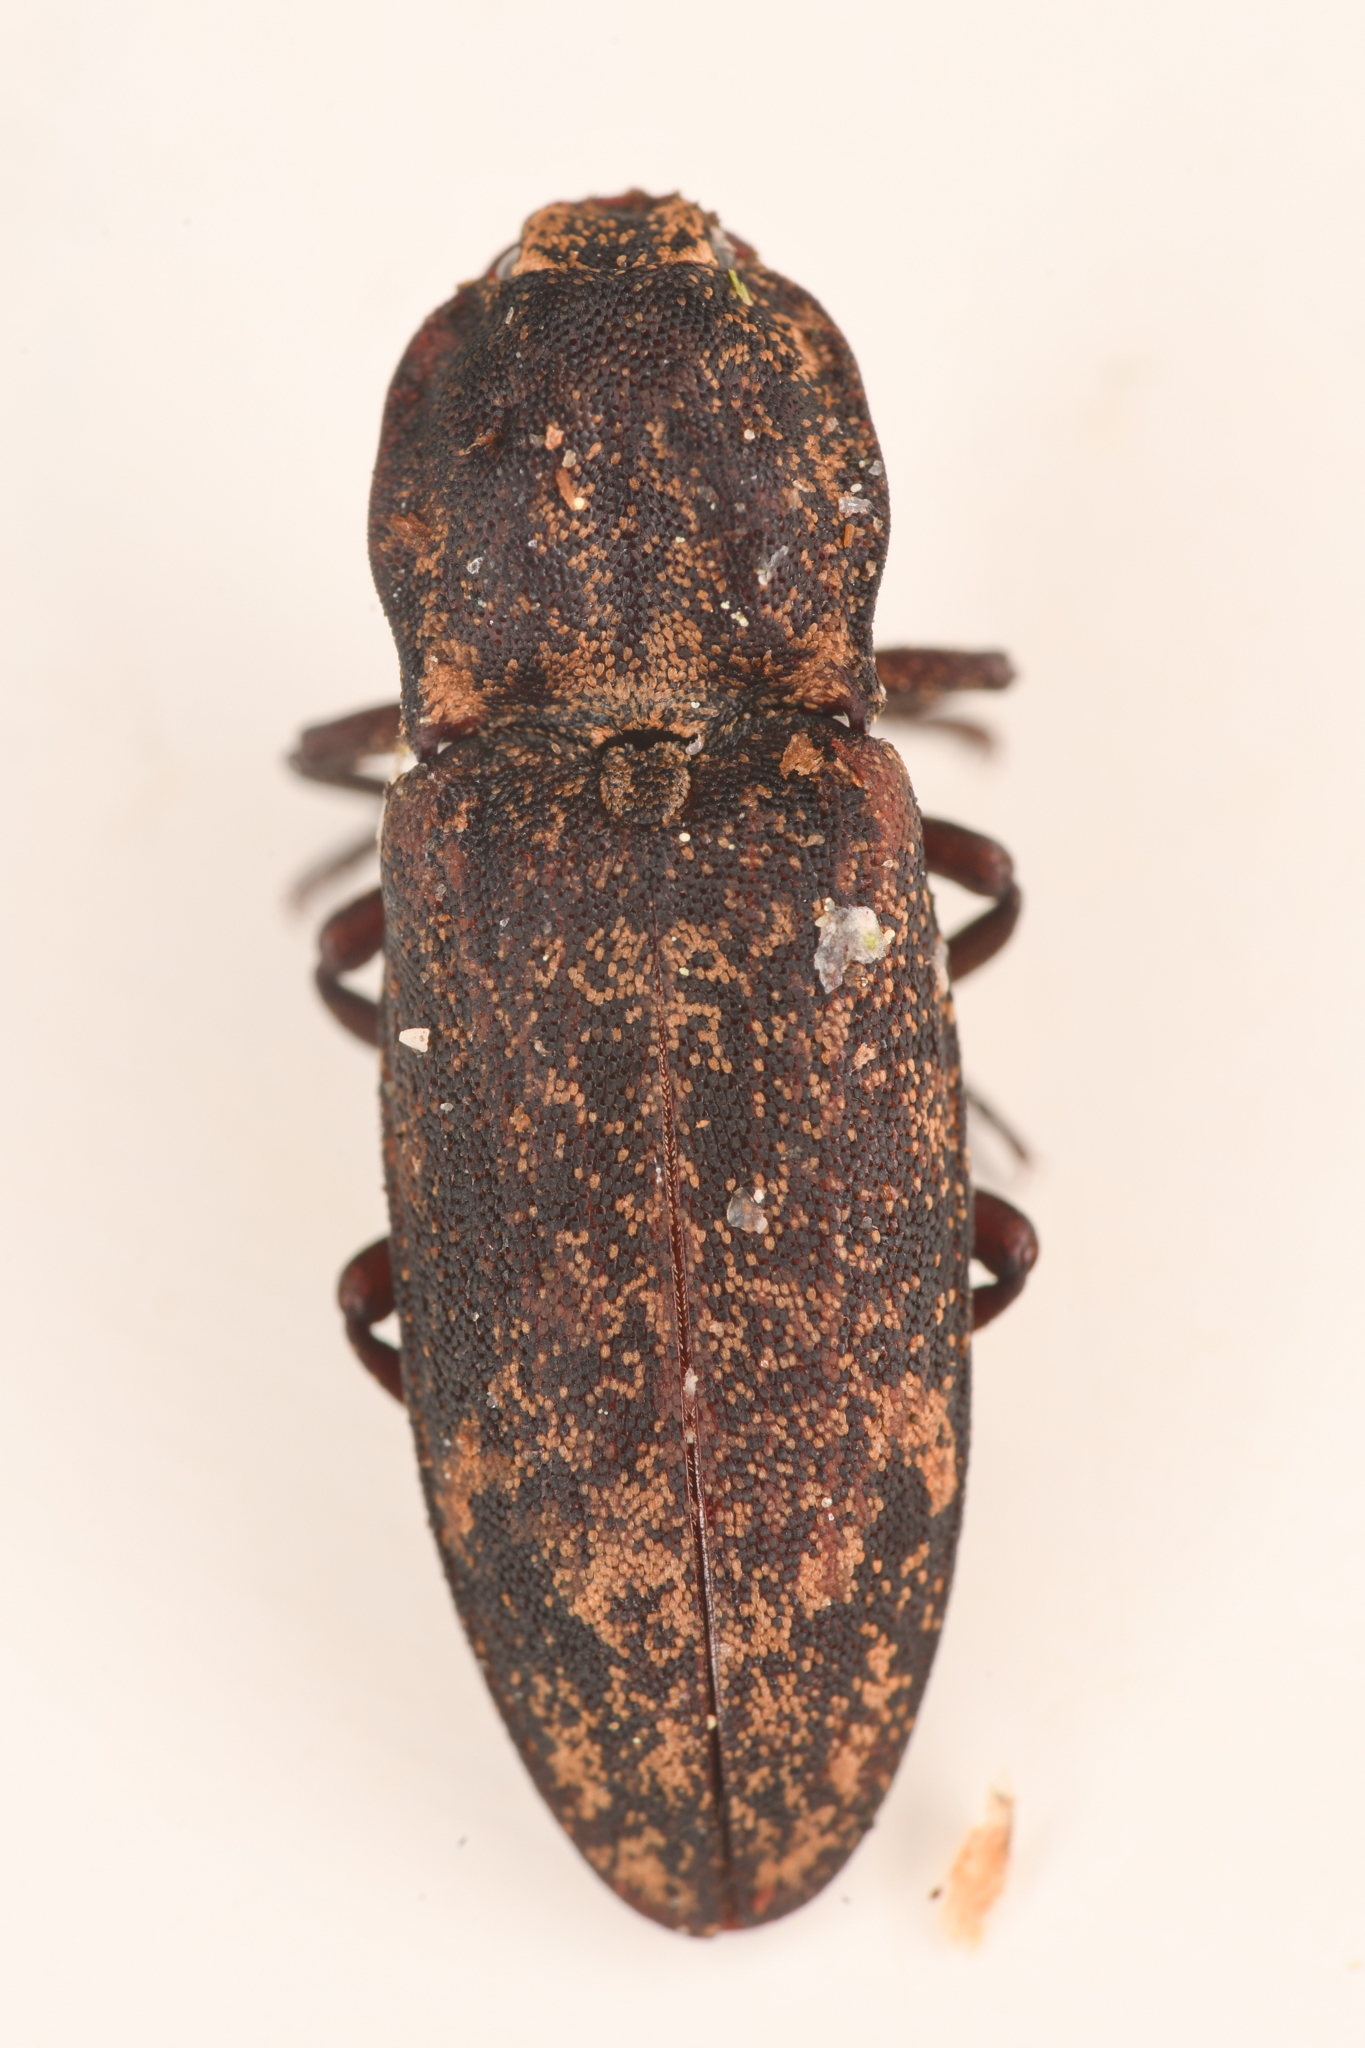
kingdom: Animalia
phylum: Arthropoda
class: Insecta
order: Coleoptera
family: Elateridae
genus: Danosoma
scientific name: Danosoma brevicorne
